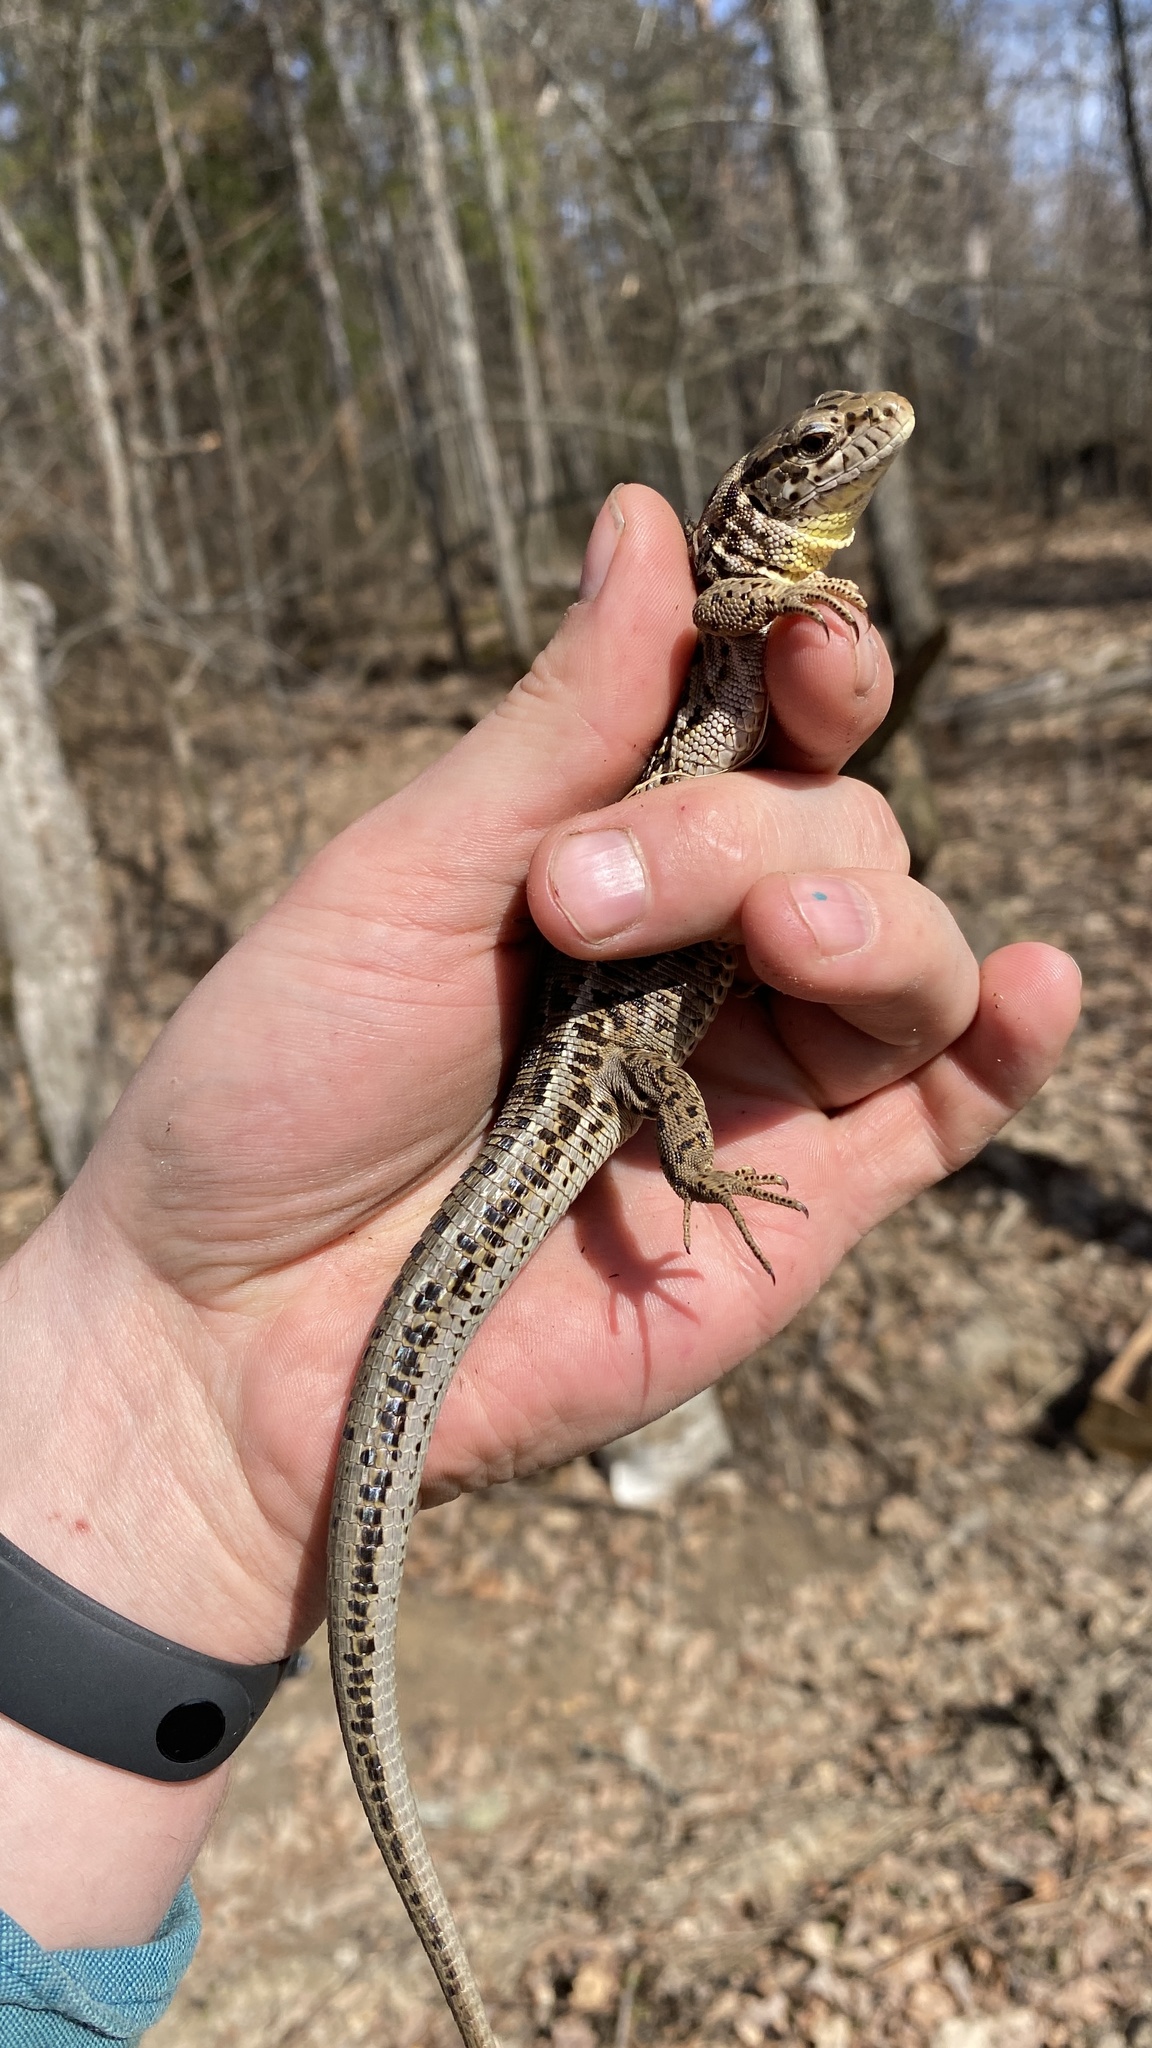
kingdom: Animalia
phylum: Chordata
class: Squamata
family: Lacertidae
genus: Lacerta
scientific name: Lacerta agilis
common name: Sand lizard
